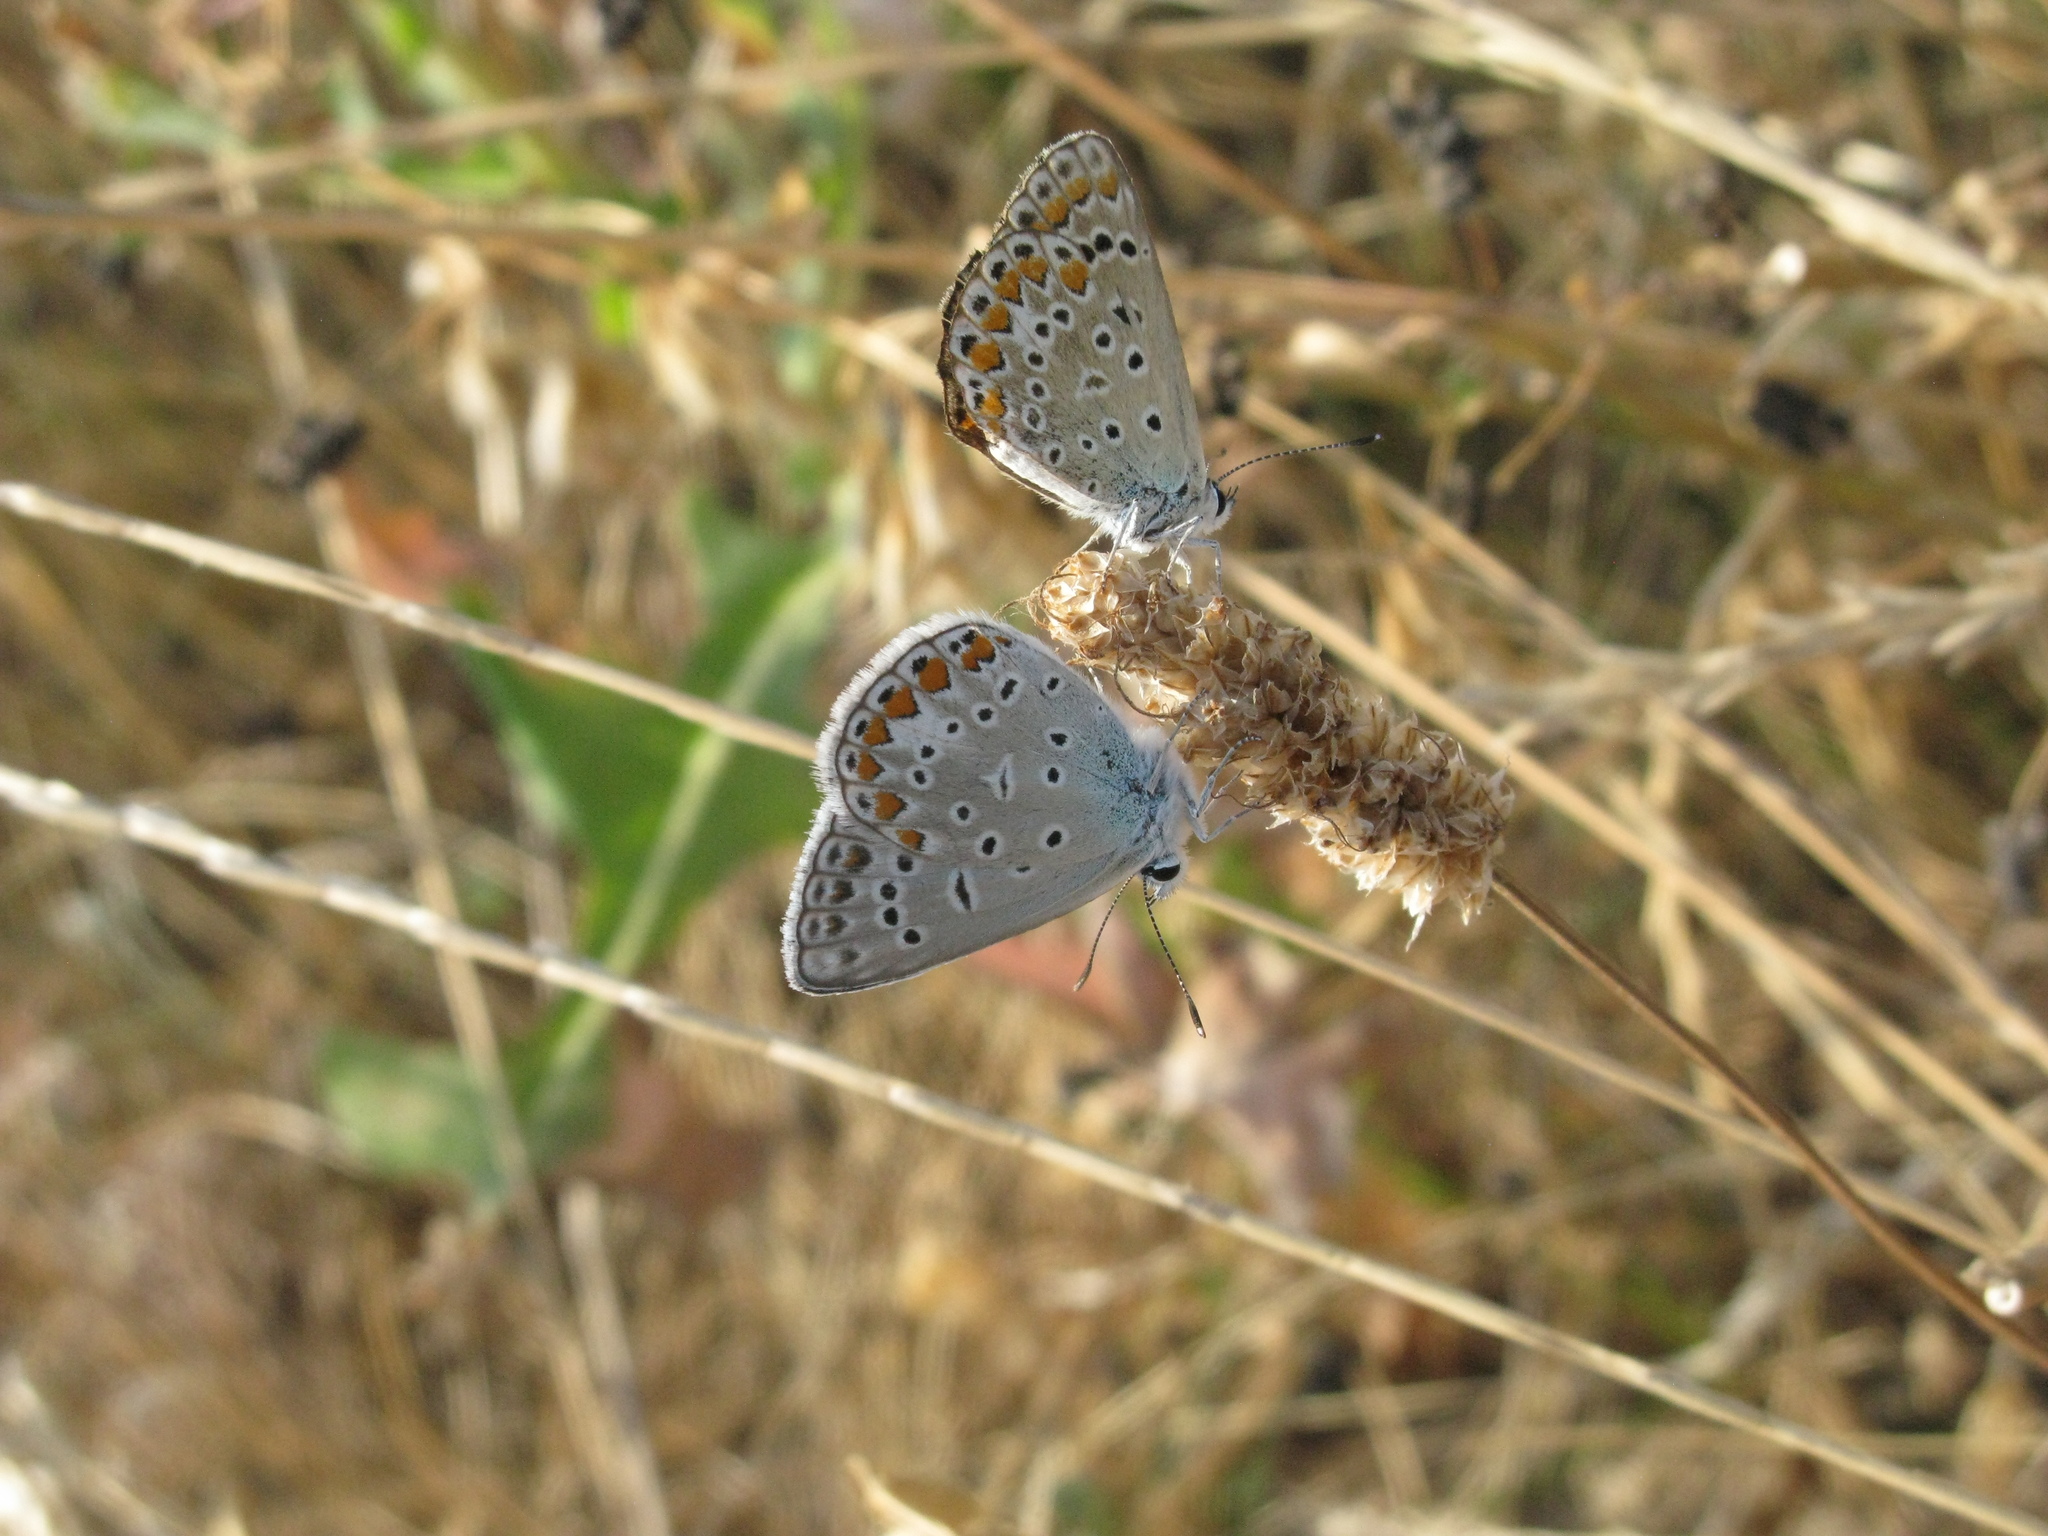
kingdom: Animalia
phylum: Arthropoda
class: Insecta
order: Lepidoptera
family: Lycaenidae
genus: Polyommatus
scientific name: Polyommatus icarus
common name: Common blue
